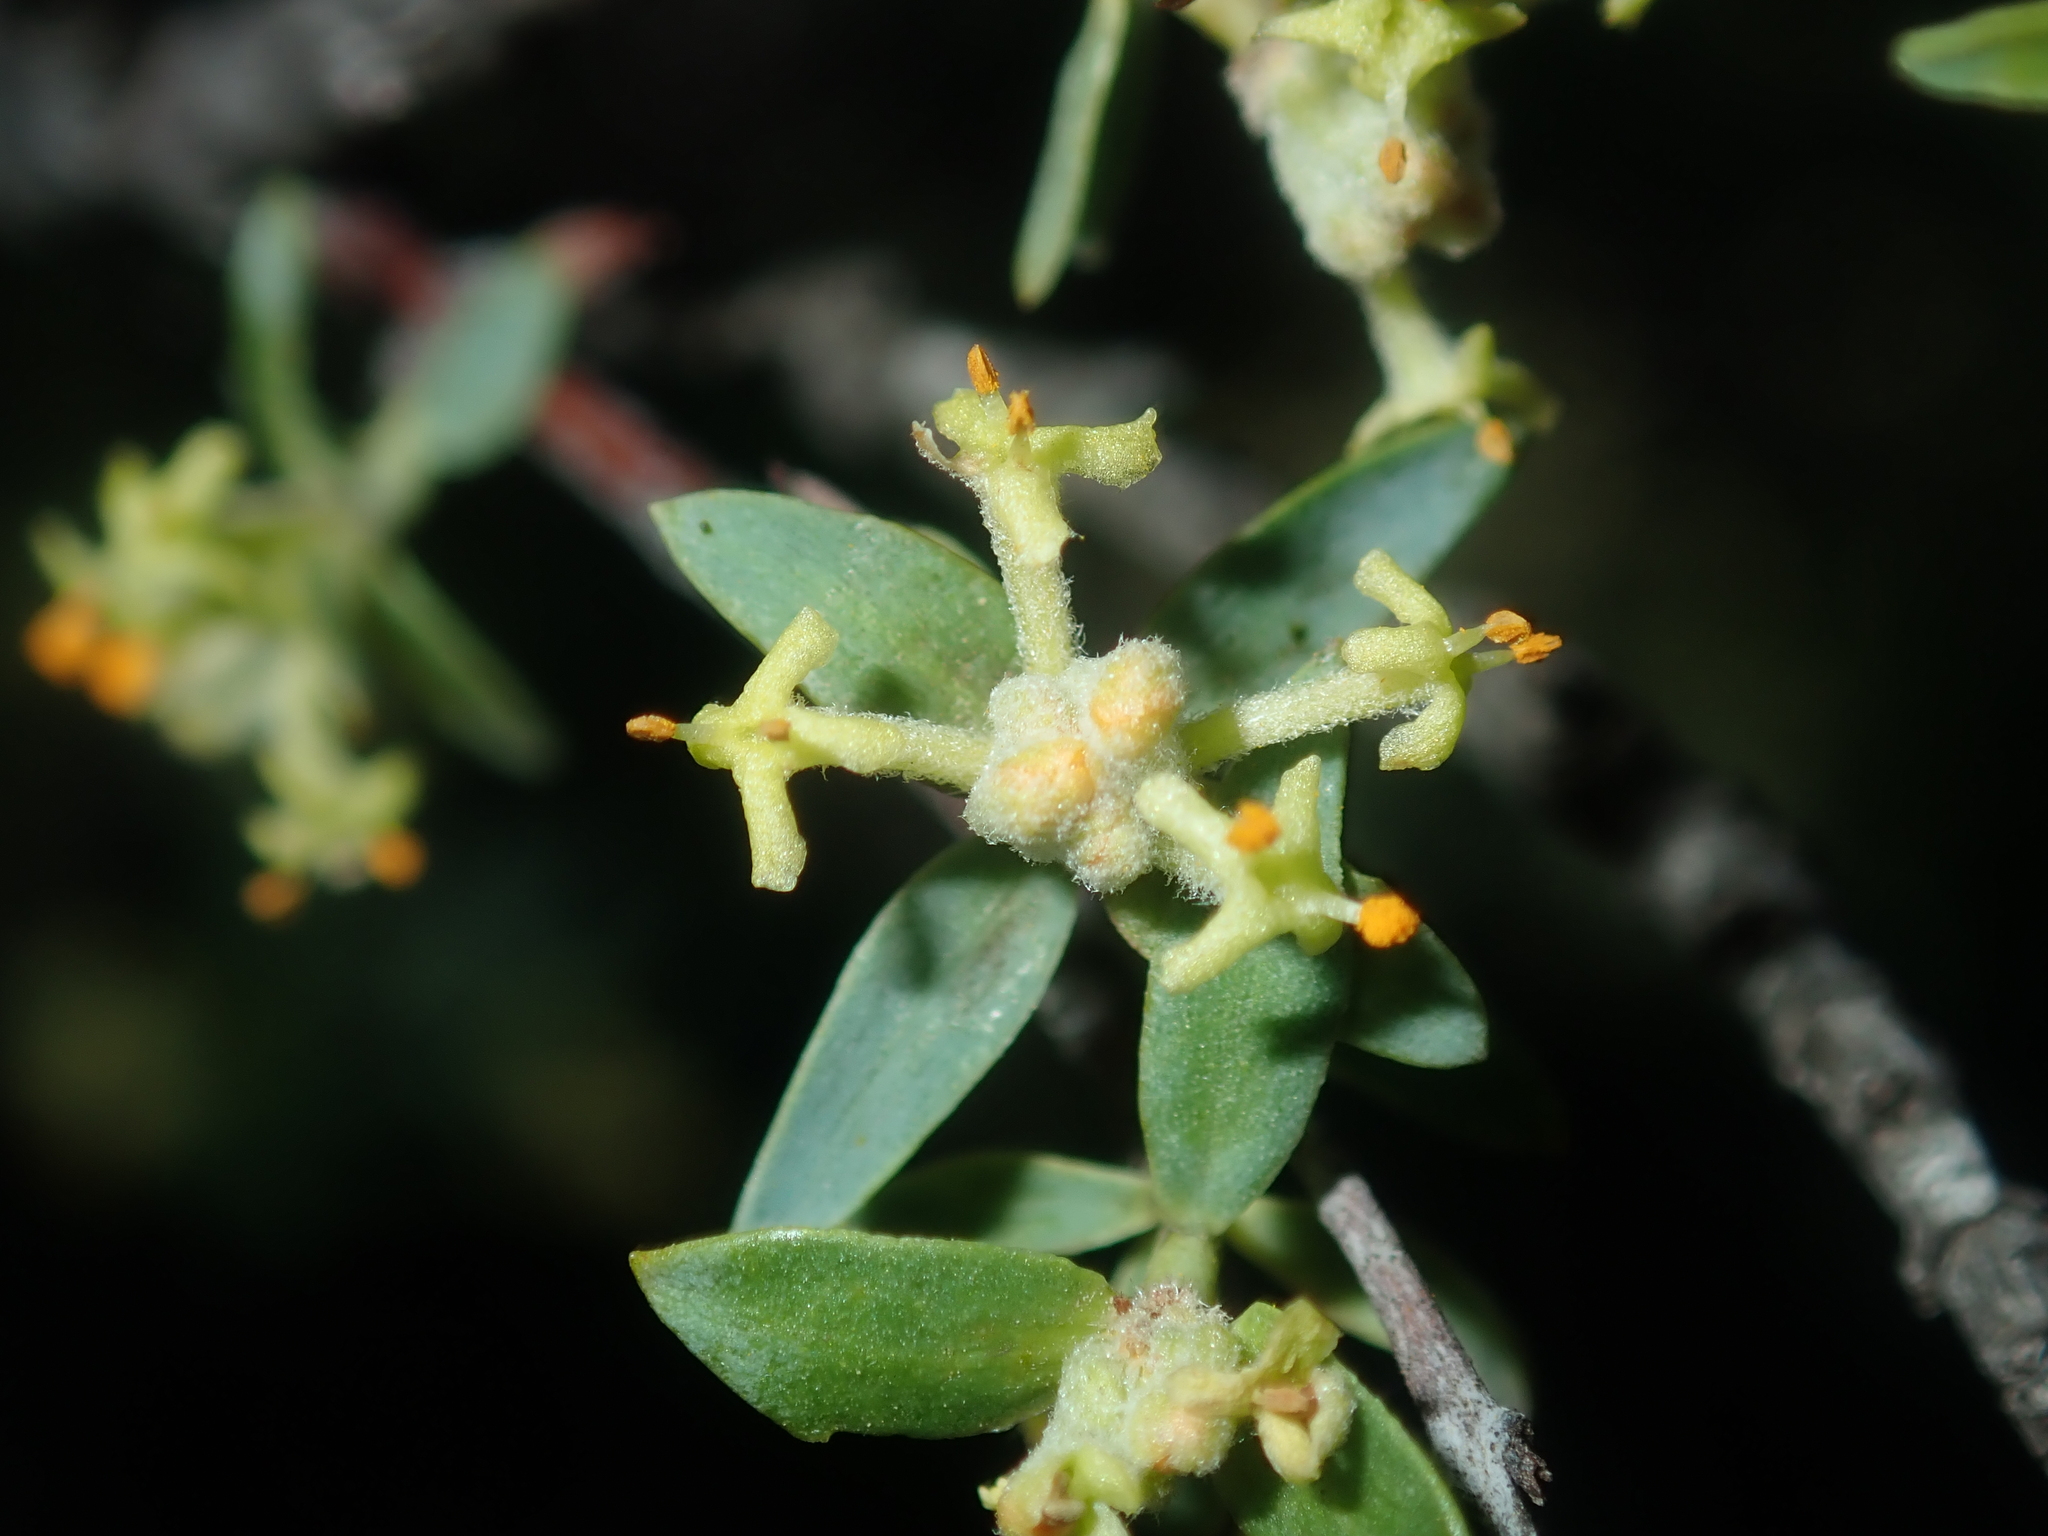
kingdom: Plantae
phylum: Tracheophyta
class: Magnoliopsida
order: Malvales
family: Thymelaeaceae
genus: Pimelea
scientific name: Pimelea microcephala
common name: Mallee riceflower
